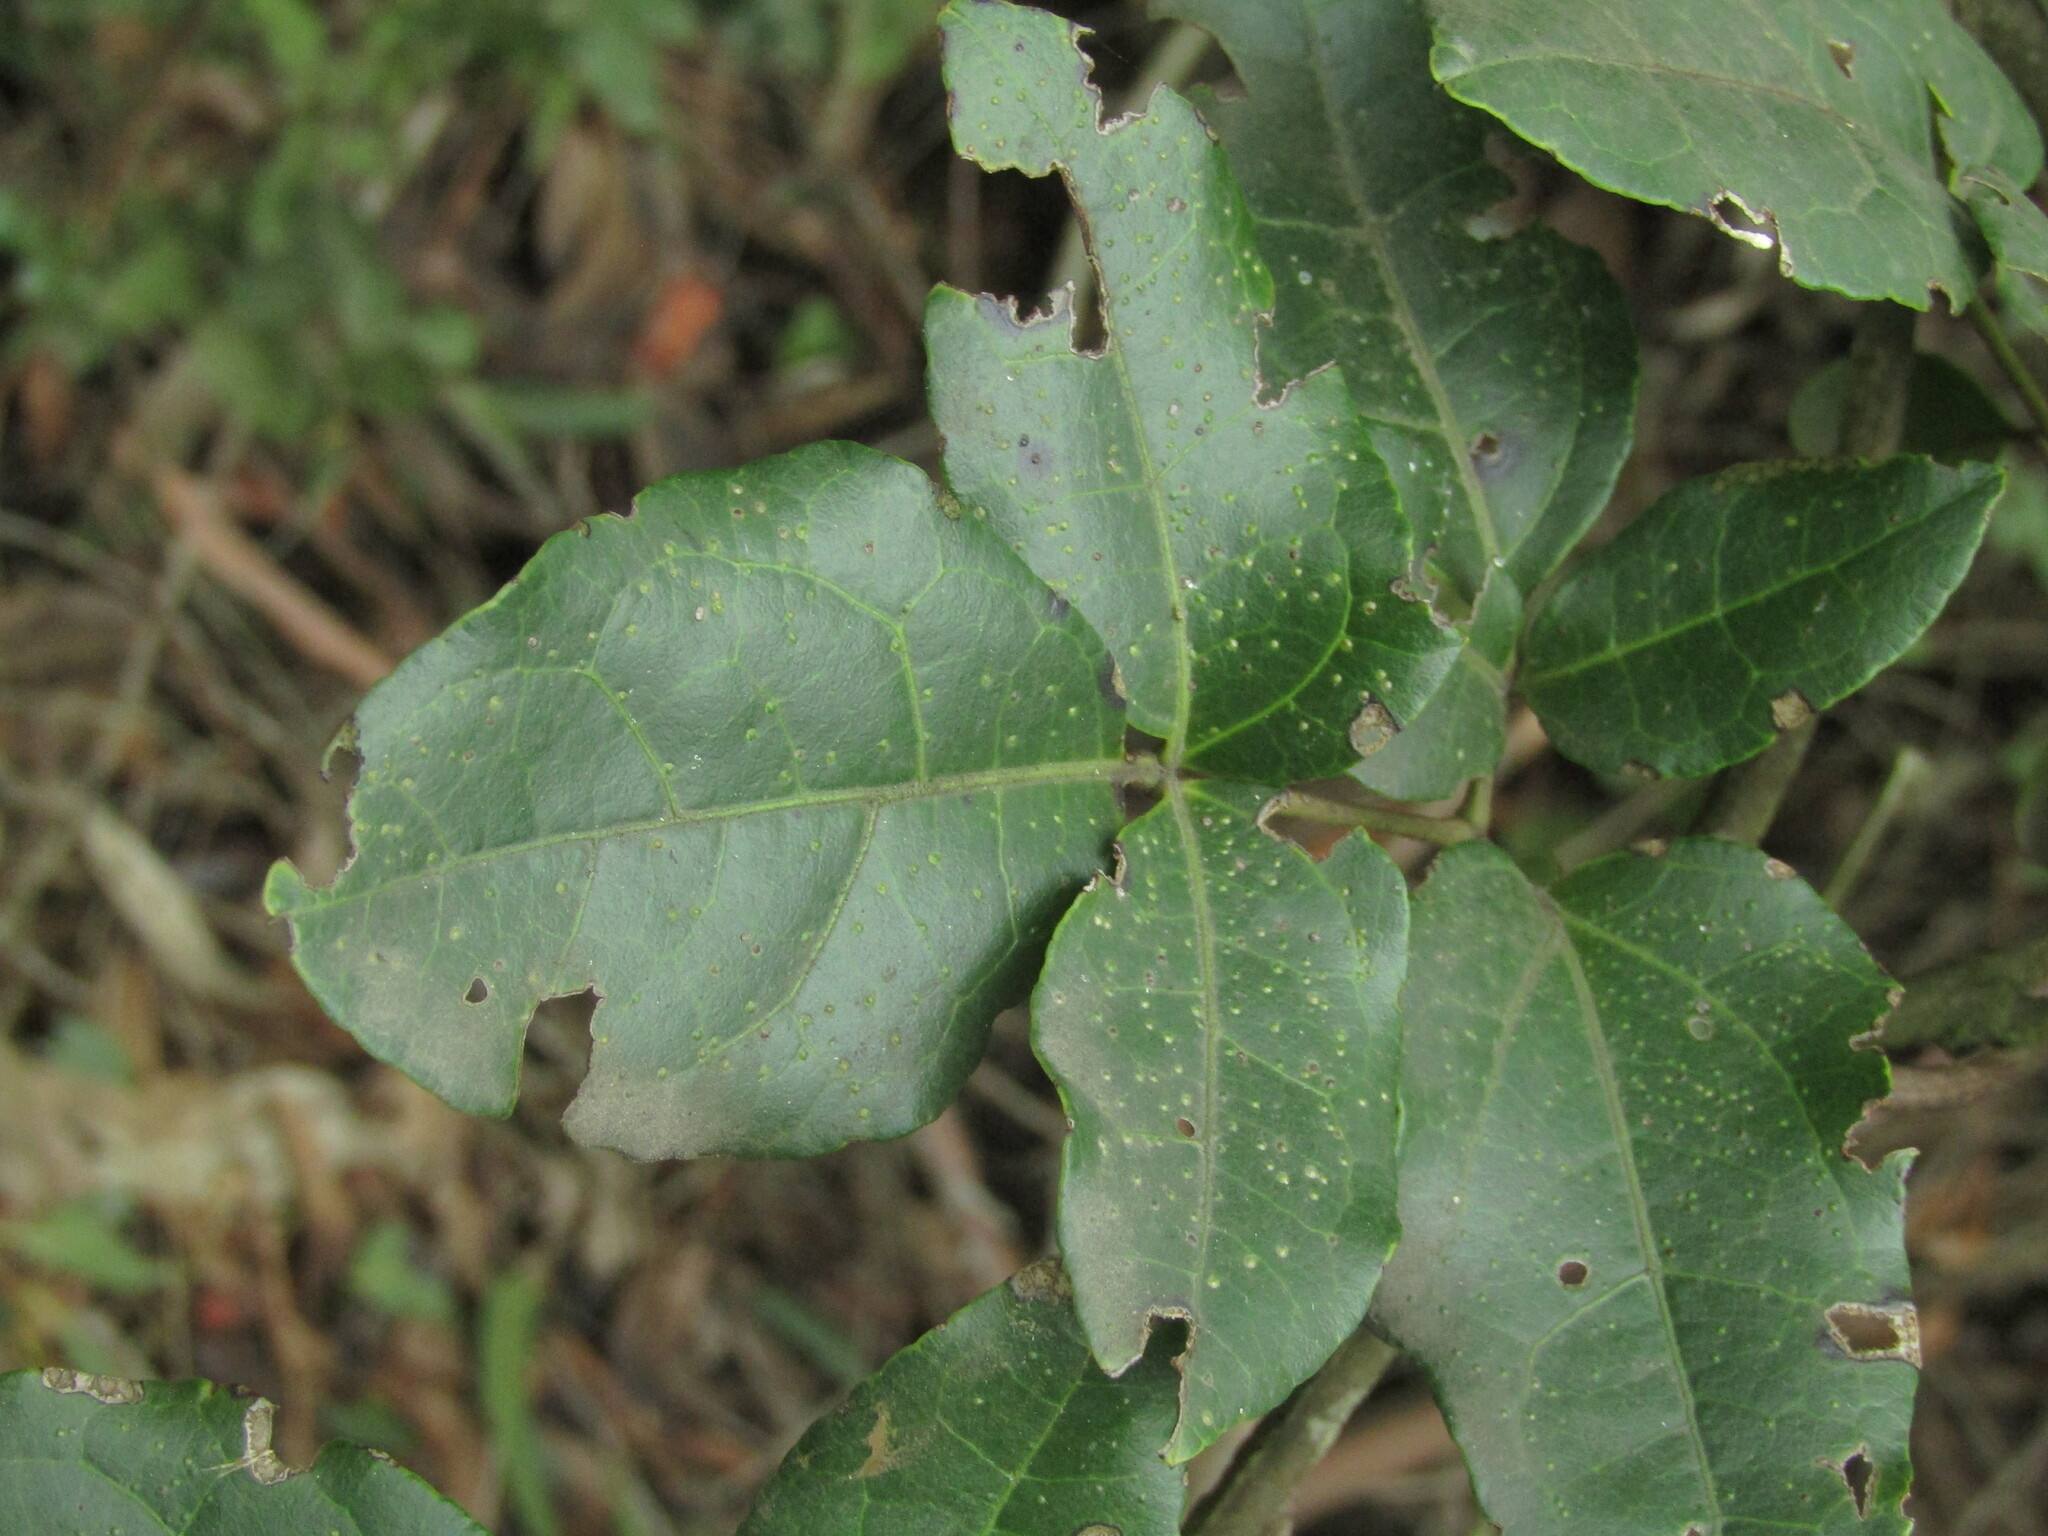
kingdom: Plantae
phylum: Tracheophyta
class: Magnoliopsida
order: Ranunculales
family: Lardizabalaceae
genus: Lardizabala
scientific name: Lardizabala funaria
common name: Zabala
